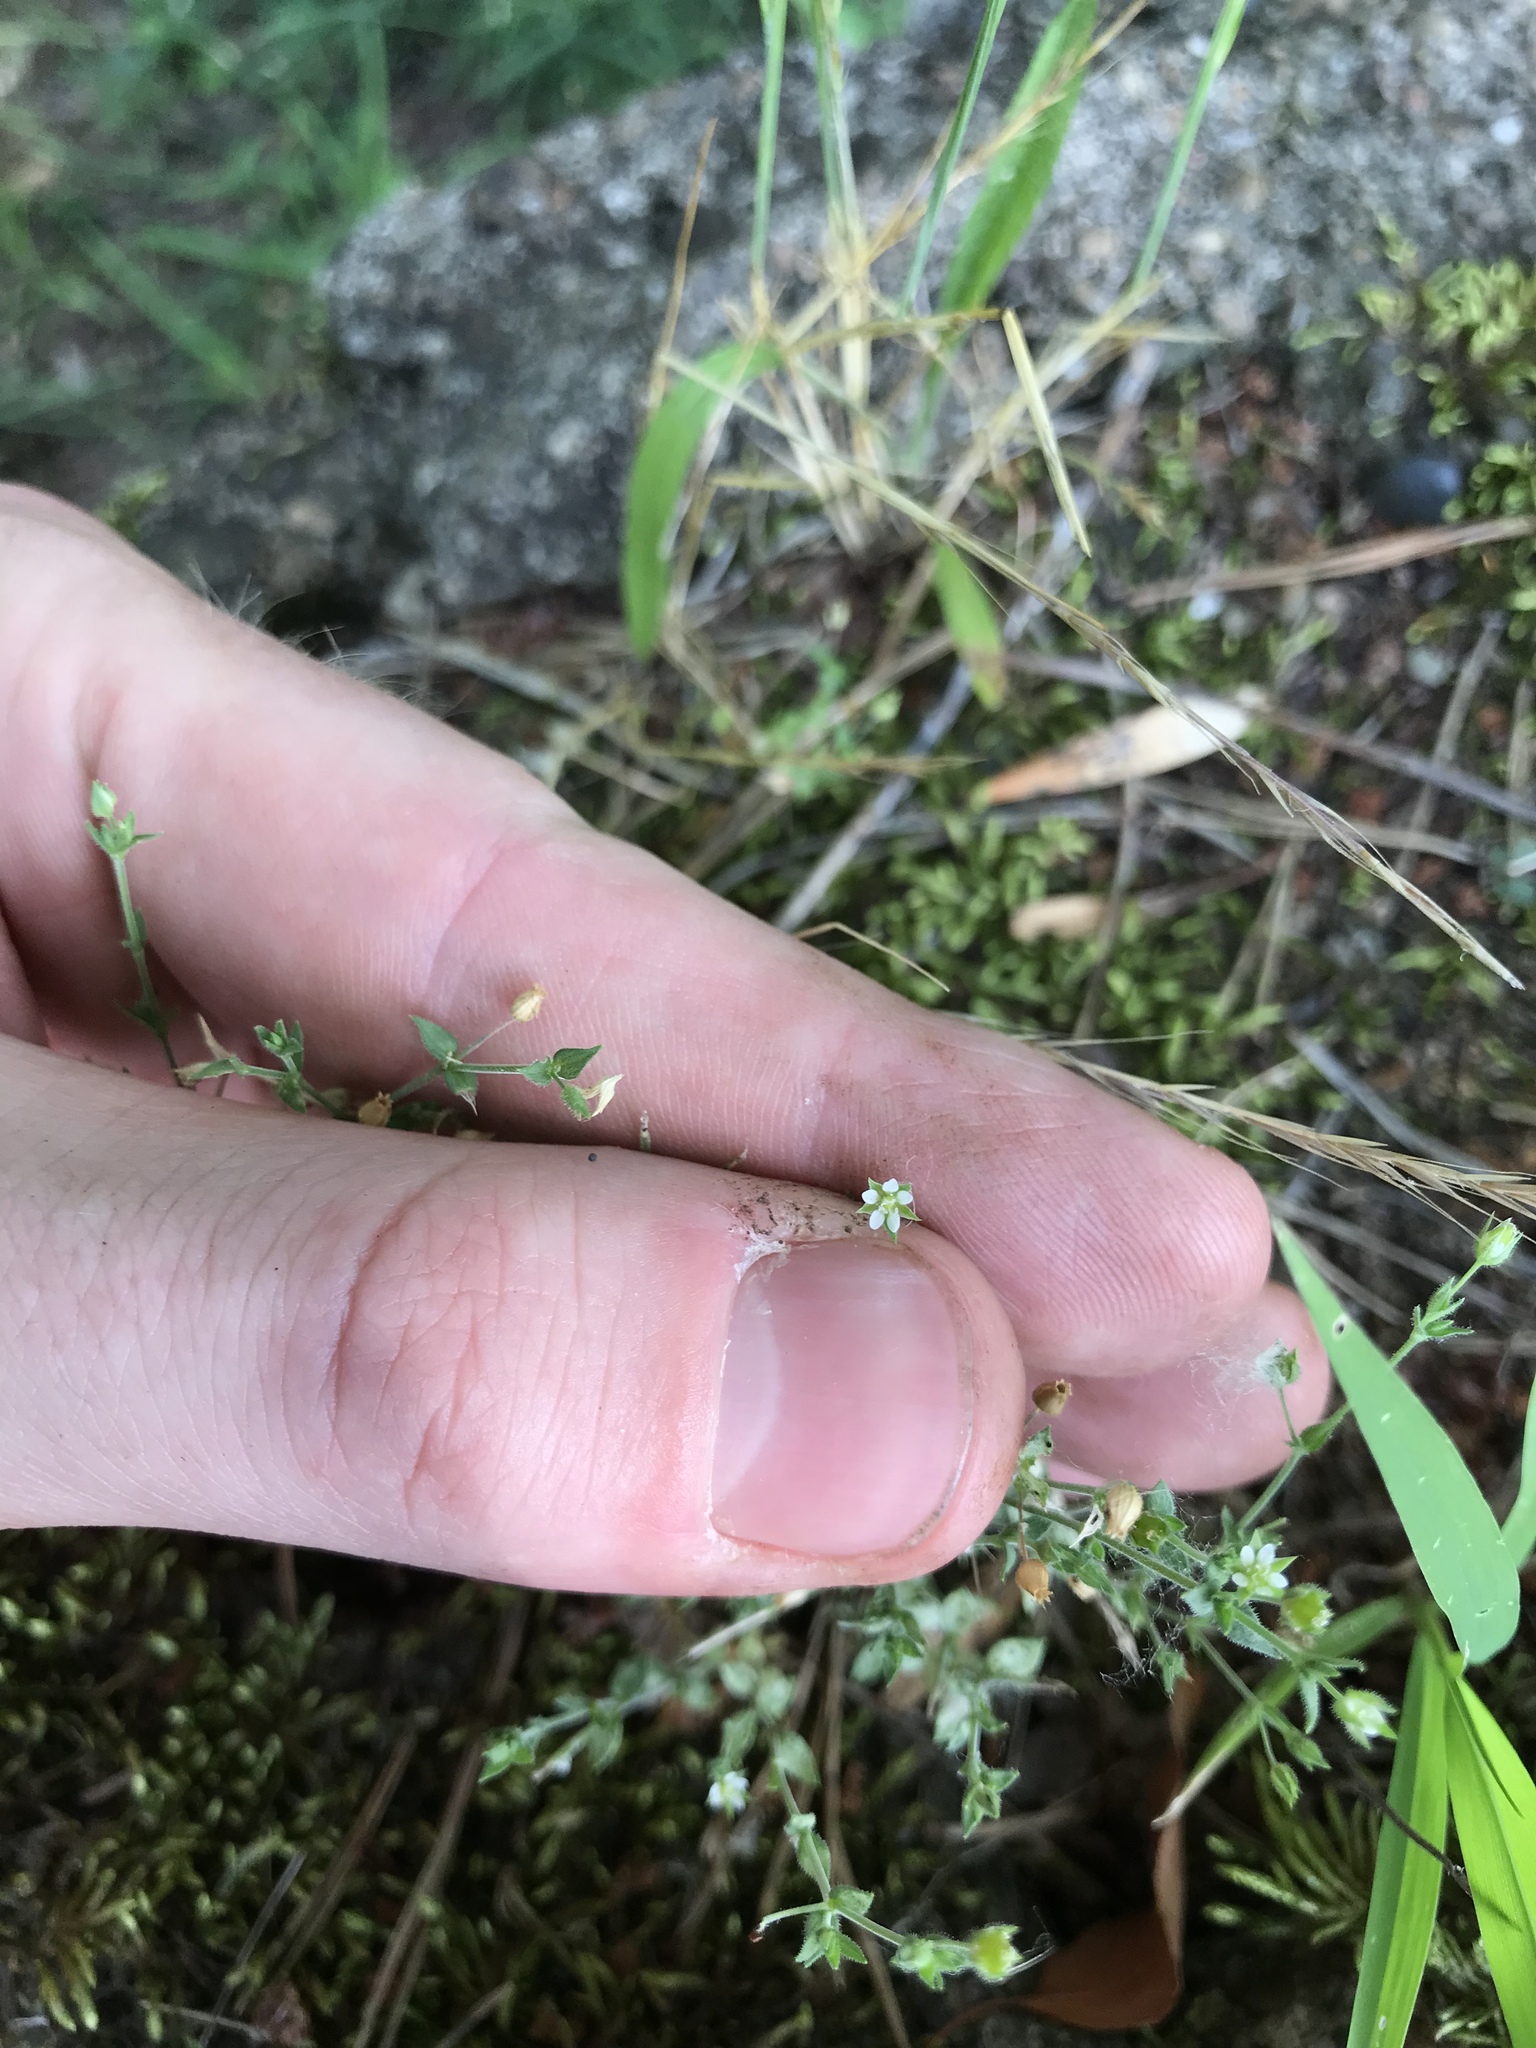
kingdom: Plantae
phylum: Tracheophyta
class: Magnoliopsida
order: Caryophyllales
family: Caryophyllaceae
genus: Arenaria
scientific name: Arenaria serpyllifolia
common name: Thyme-leaved sandwort
